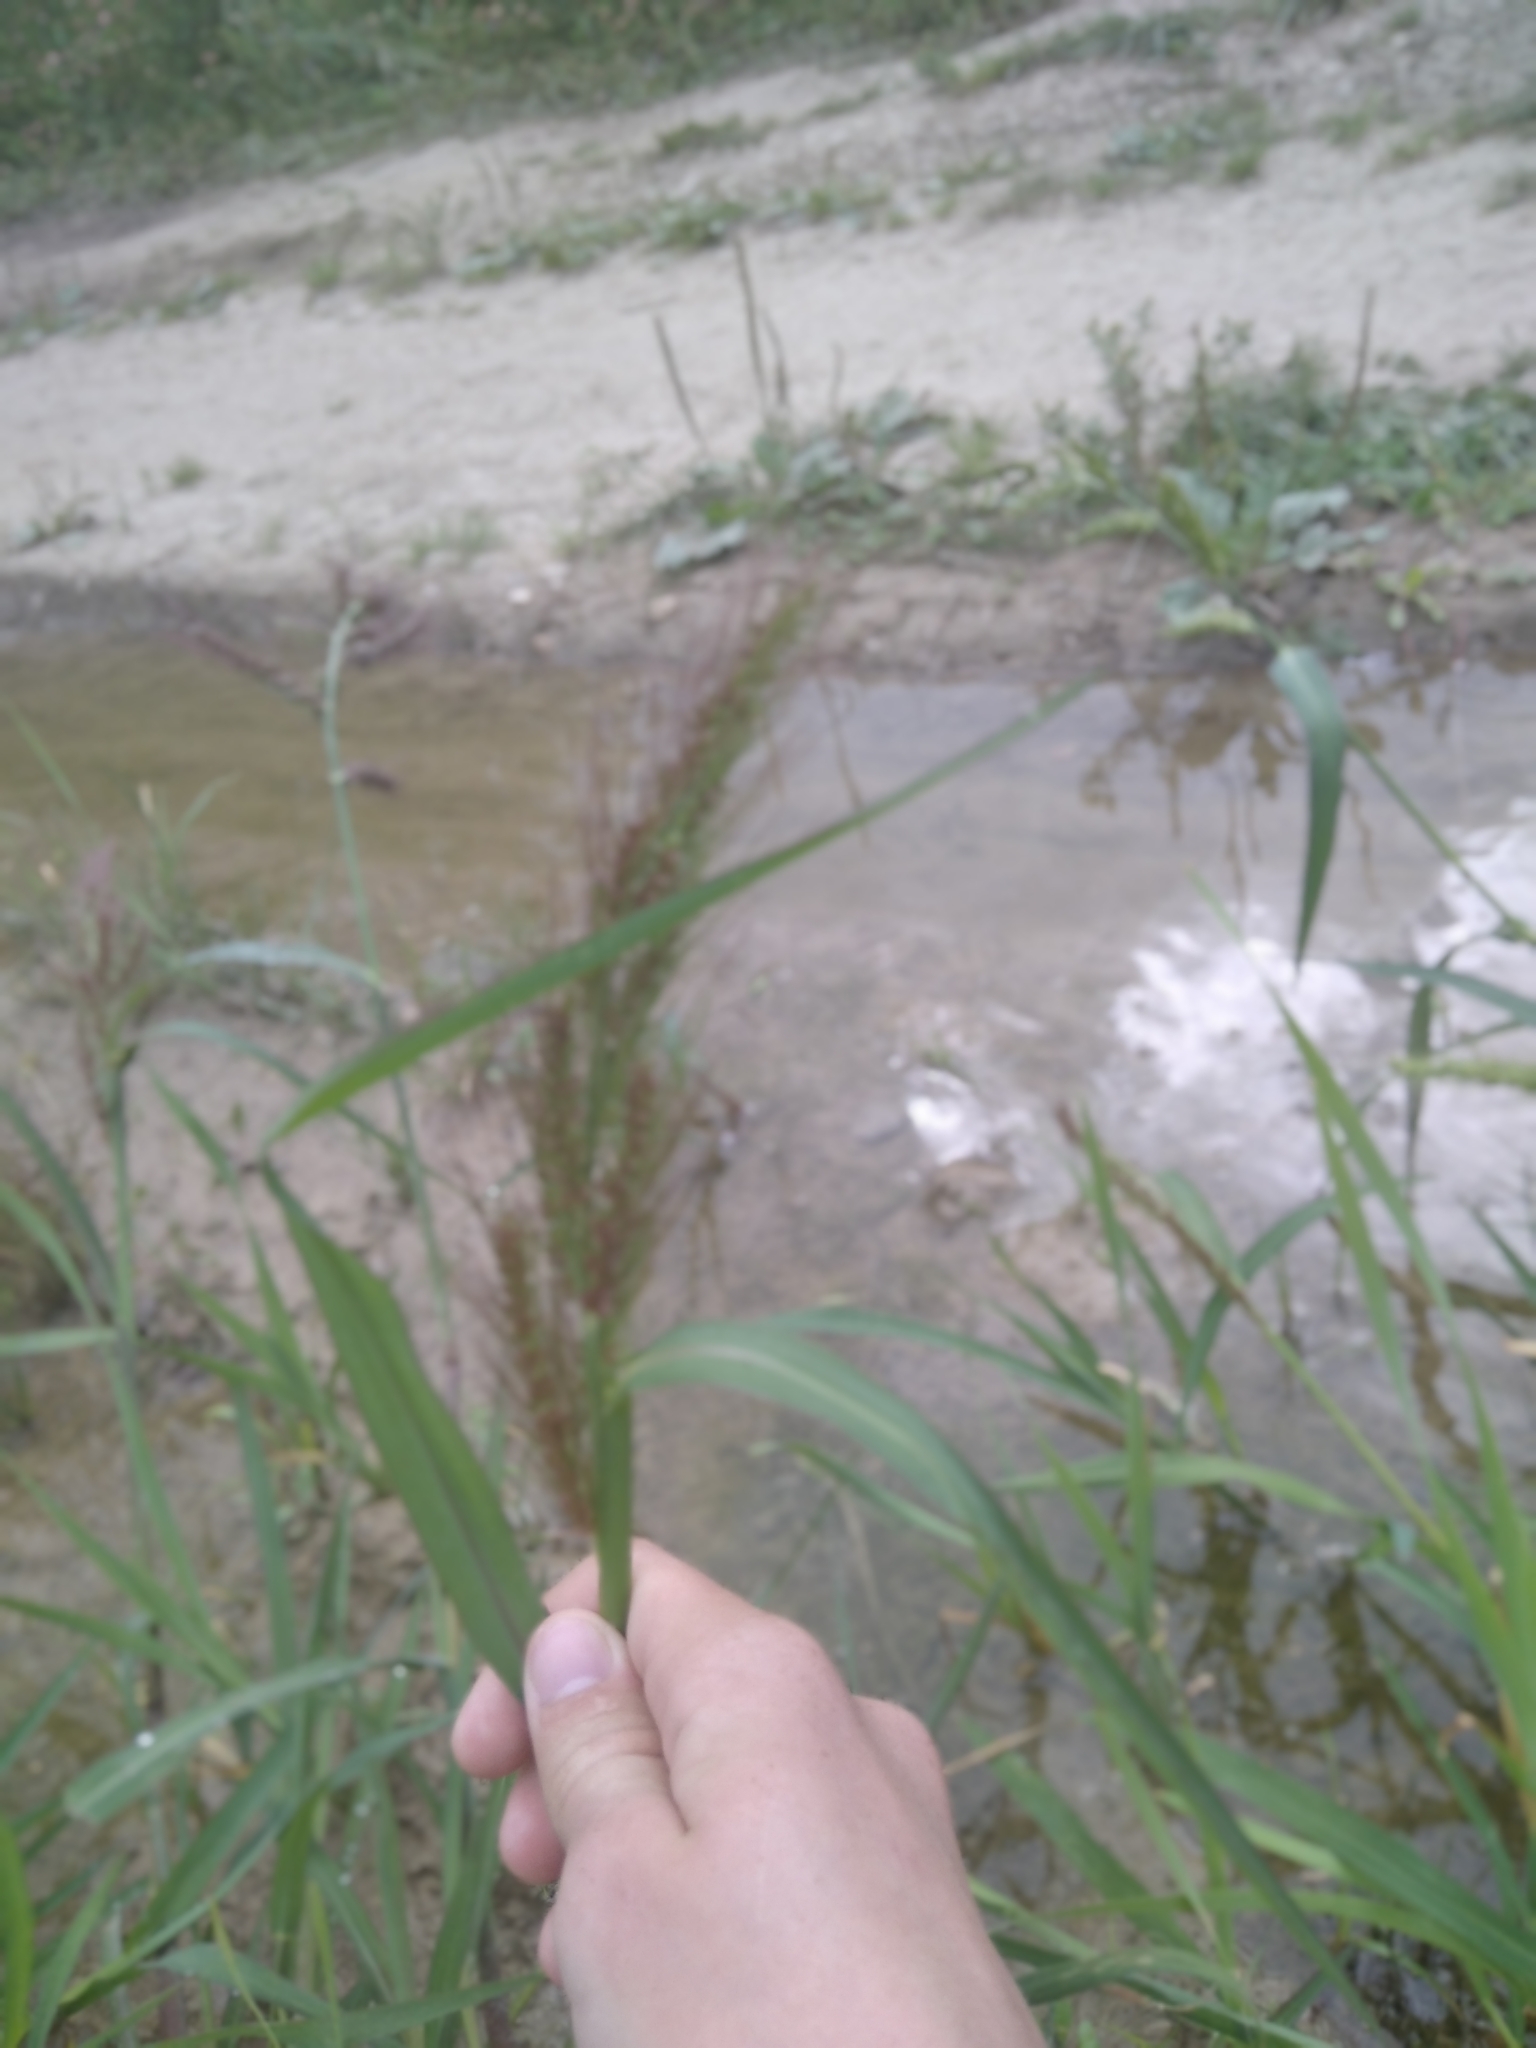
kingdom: Plantae
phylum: Tracheophyta
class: Liliopsida
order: Poales
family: Poaceae
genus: Echinochloa
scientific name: Echinochloa crus-galli
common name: Cockspur
